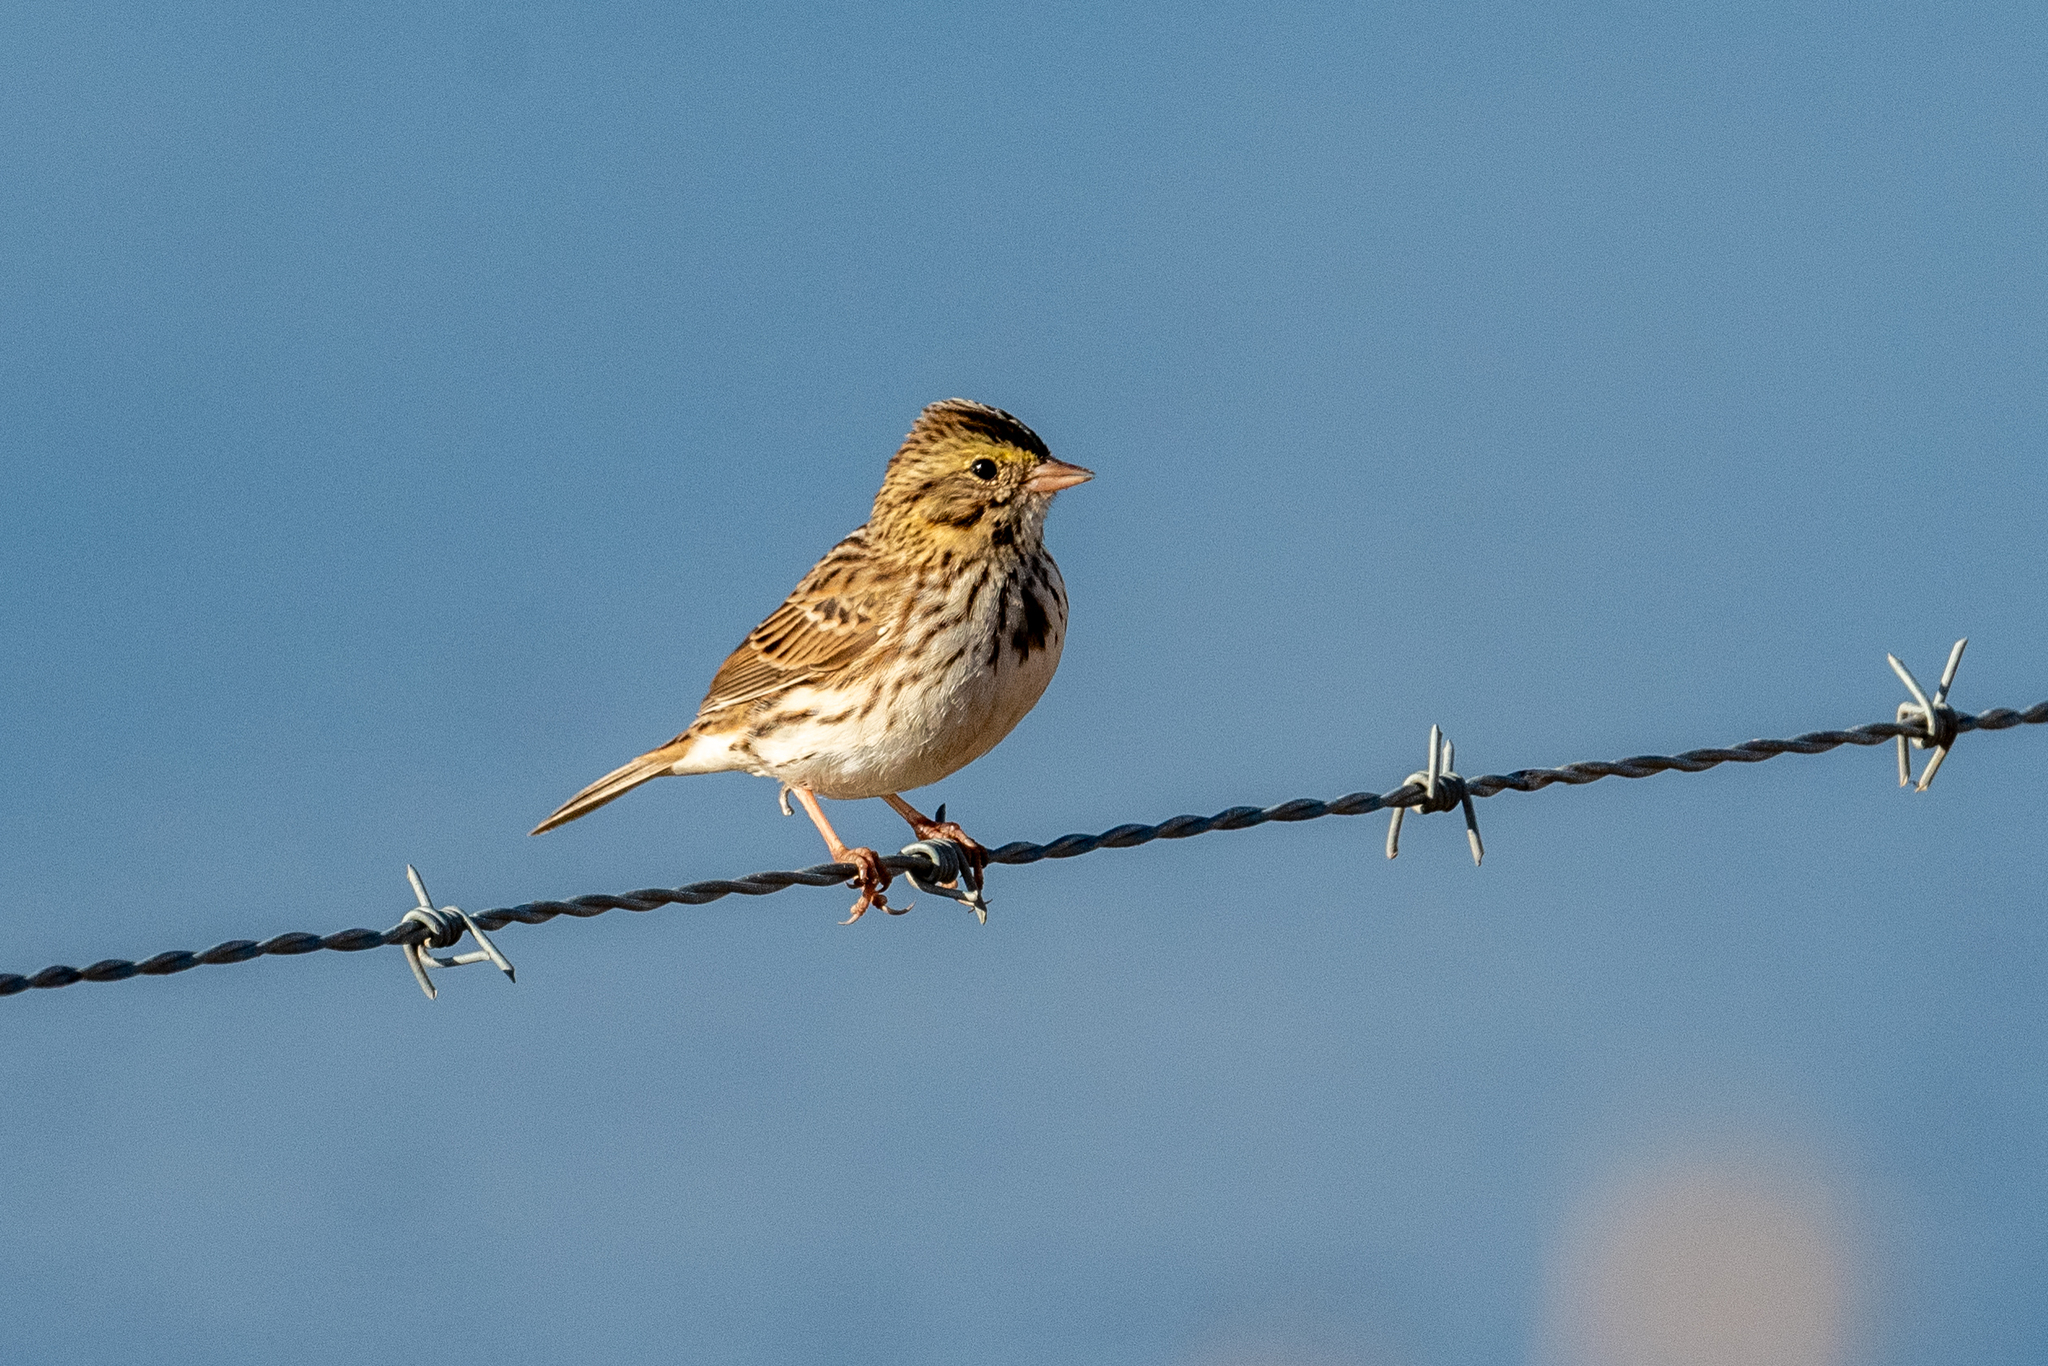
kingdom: Animalia
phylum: Chordata
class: Aves
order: Passeriformes
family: Passerellidae
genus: Passerculus
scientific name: Passerculus sandwichensis
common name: Savannah sparrow
